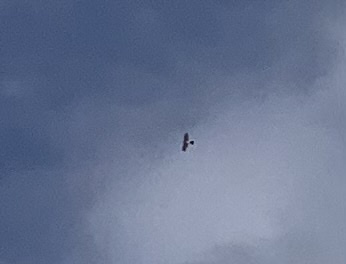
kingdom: Animalia
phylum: Chordata
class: Aves
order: Accipitriformes
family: Accipitridae
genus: Accipiter
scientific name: Accipiter nisus
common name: Eurasian sparrowhawk
